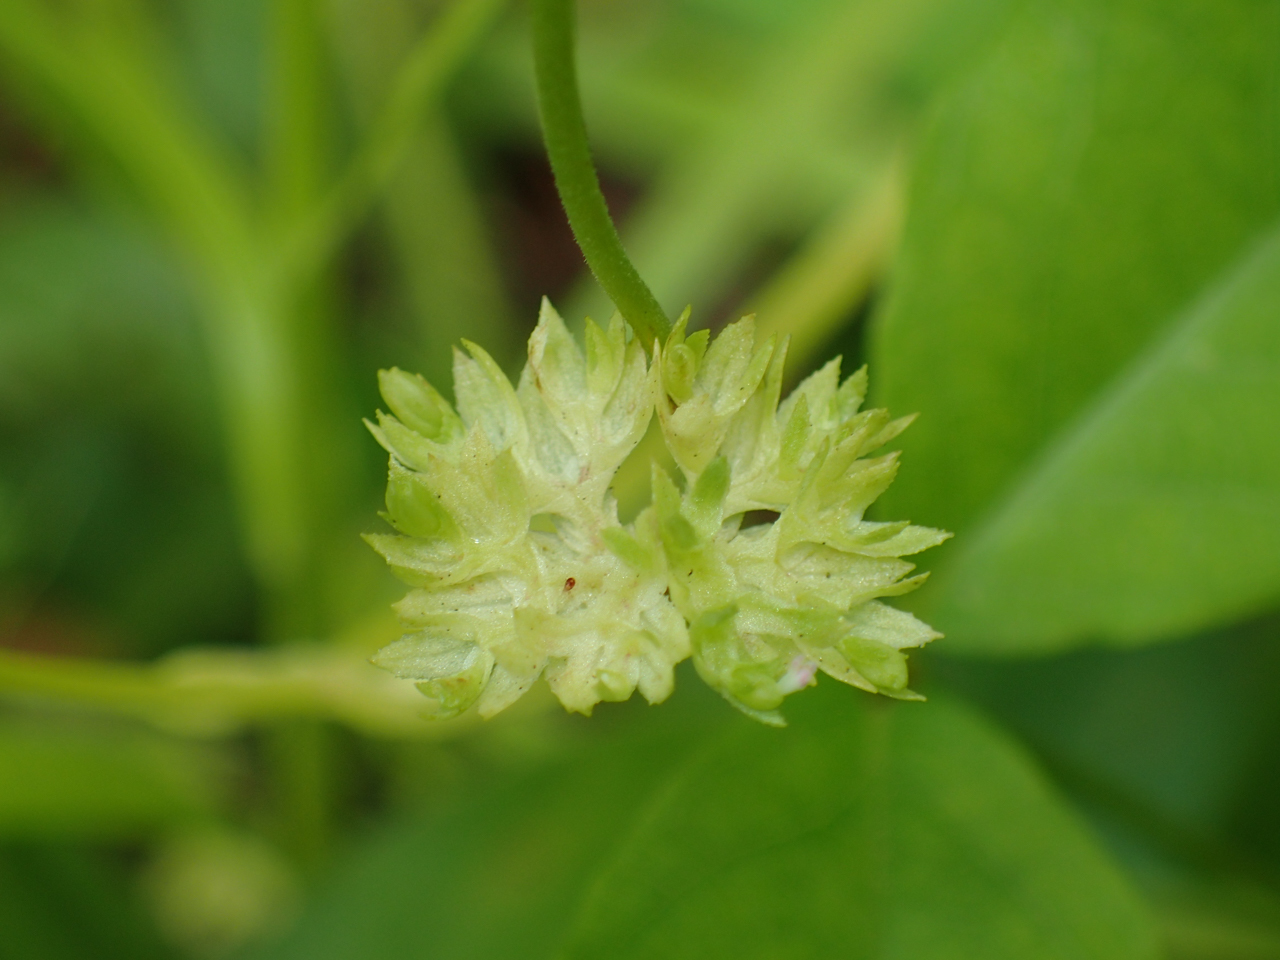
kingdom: Plantae
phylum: Tracheophyta
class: Magnoliopsida
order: Dipsacales
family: Caprifoliaceae
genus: Valerianella
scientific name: Valerianella radiata
